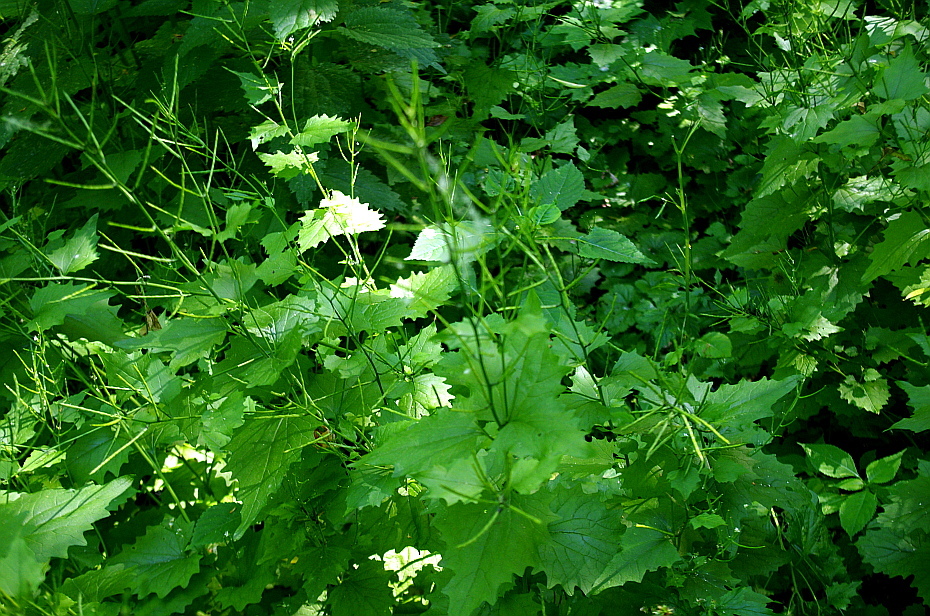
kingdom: Plantae
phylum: Tracheophyta
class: Magnoliopsida
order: Brassicales
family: Brassicaceae
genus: Alliaria
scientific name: Alliaria petiolata
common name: Garlic mustard
